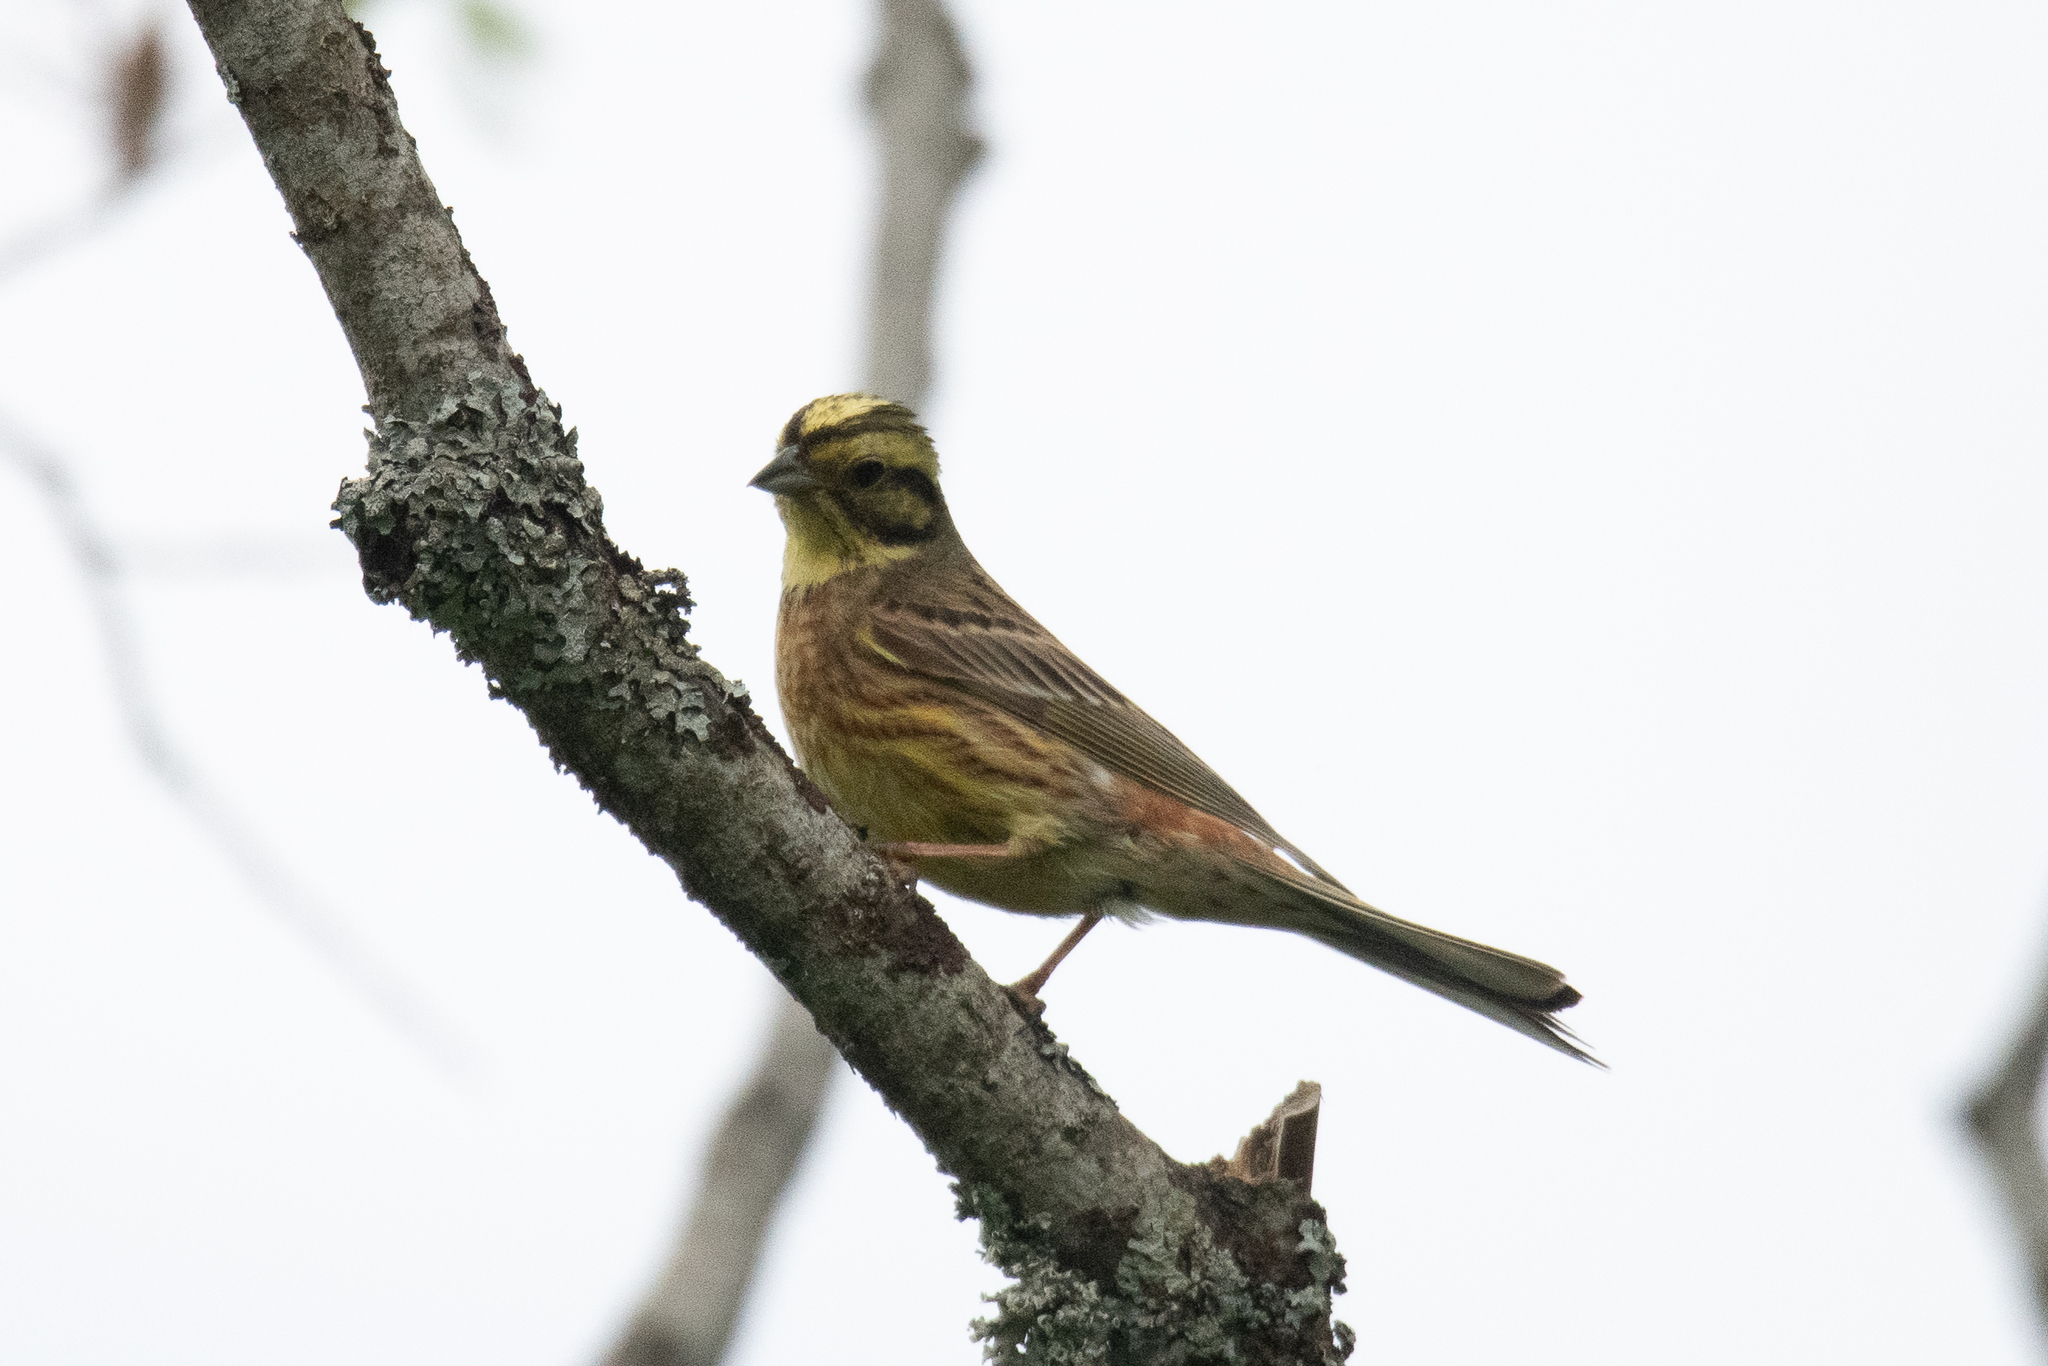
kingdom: Animalia
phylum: Chordata
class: Aves
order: Passeriformes
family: Emberizidae
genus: Emberiza
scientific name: Emberiza citrinella
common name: Yellowhammer
